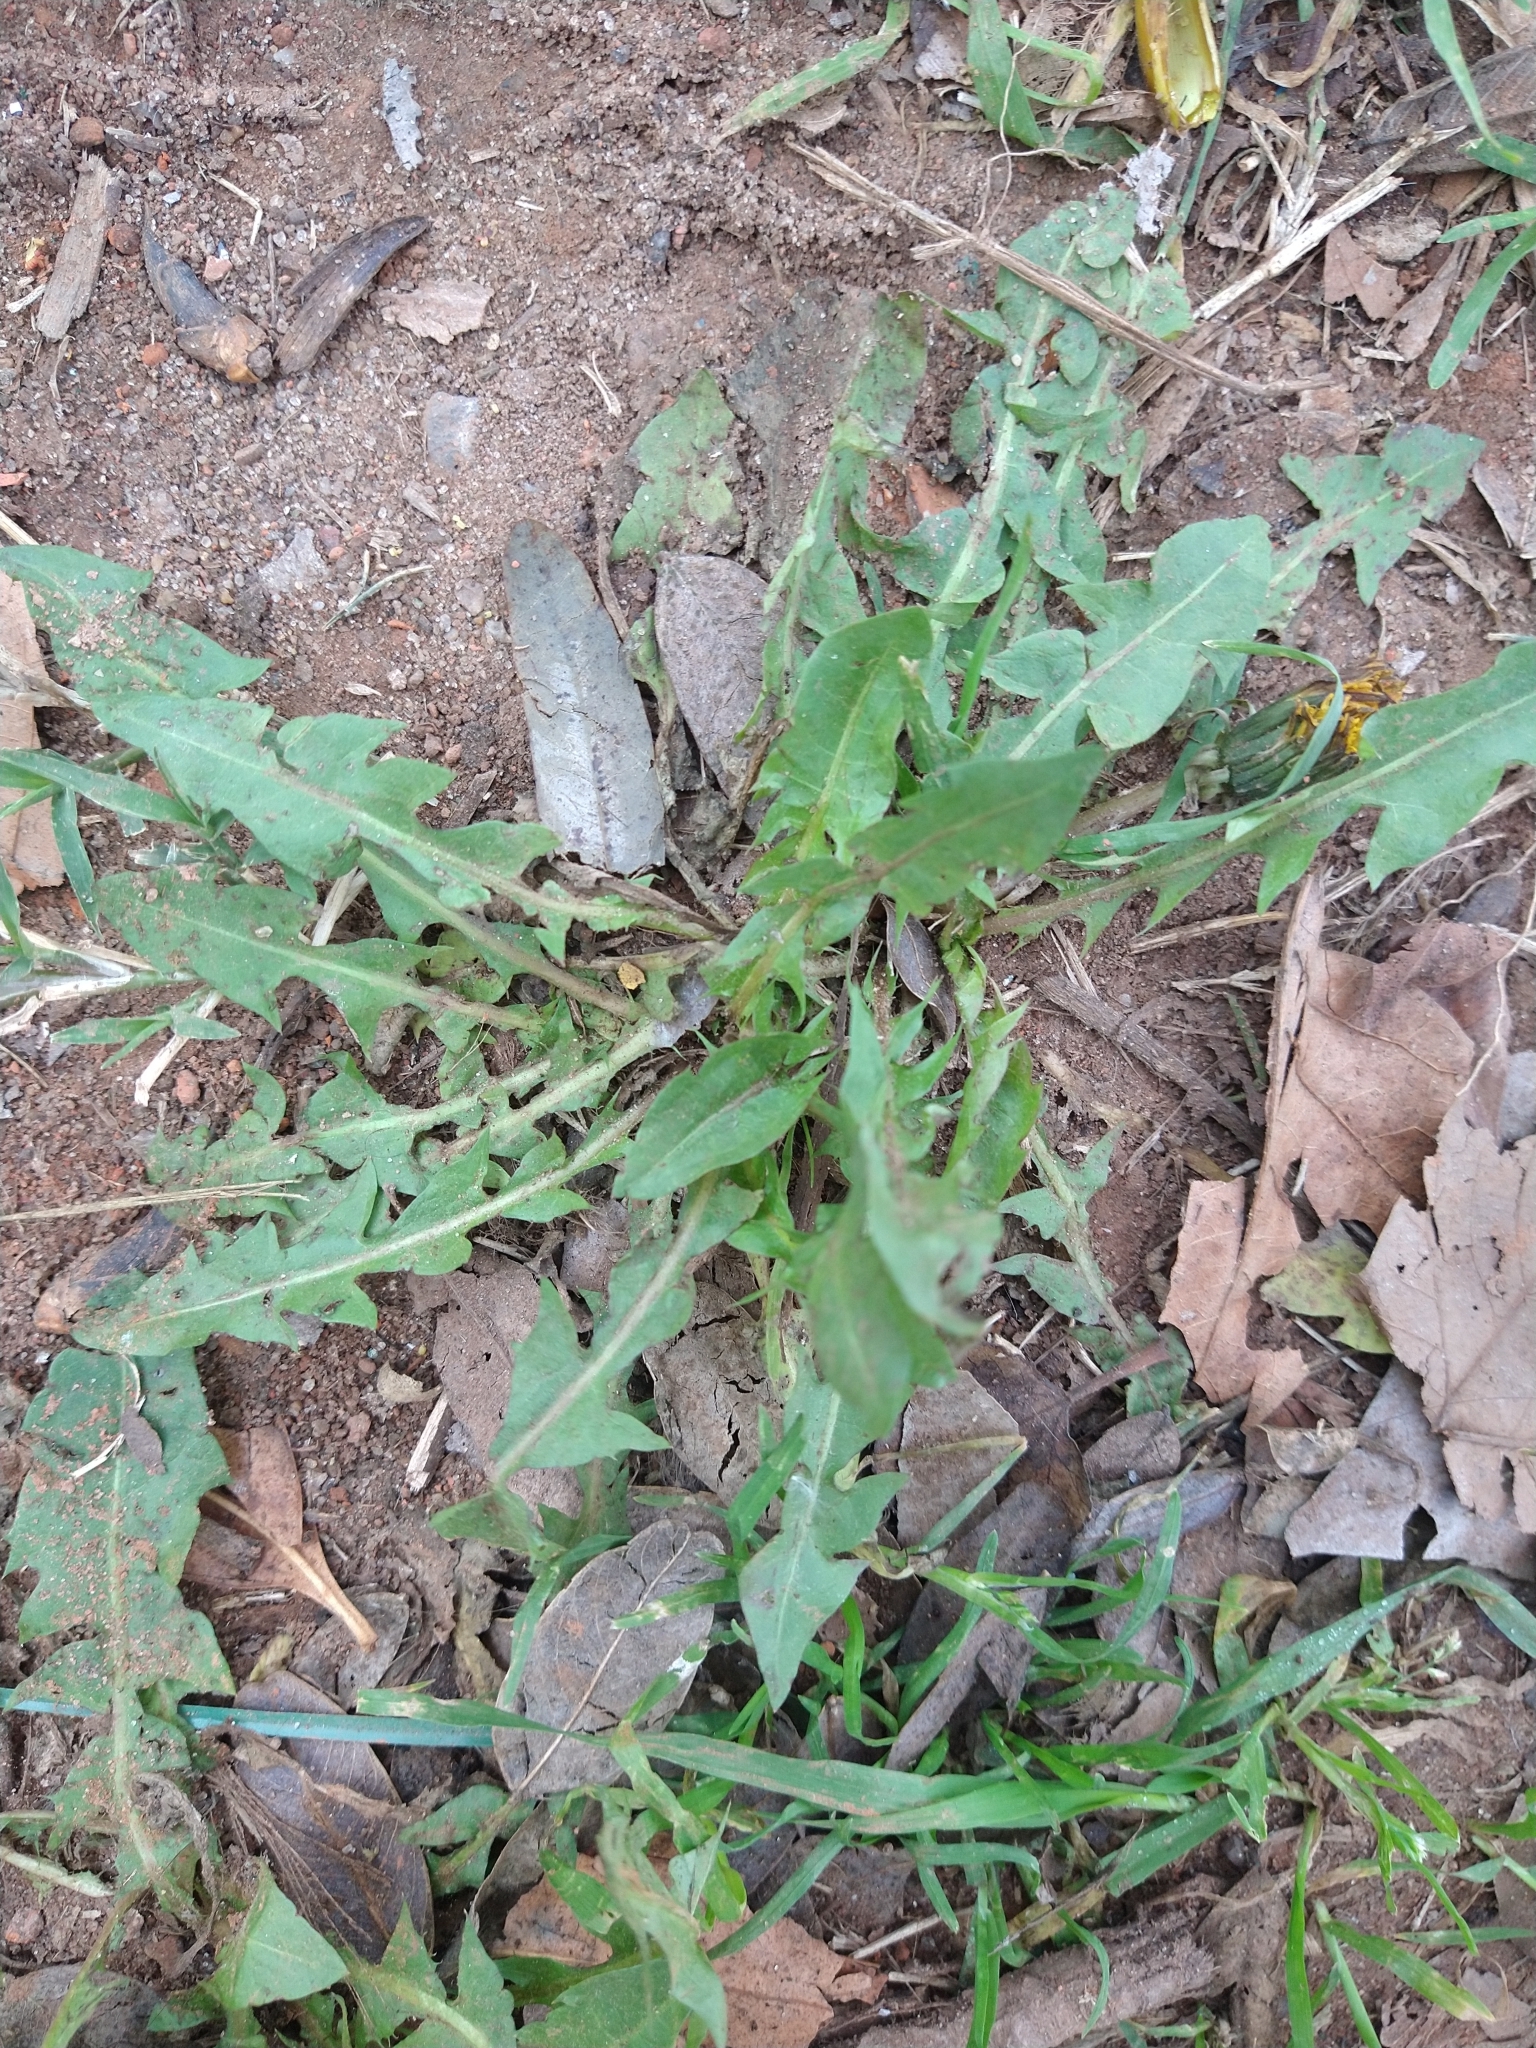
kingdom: Plantae
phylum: Tracheophyta
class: Magnoliopsida
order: Asterales
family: Asteraceae
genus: Taraxacum
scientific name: Taraxacum officinale
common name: Common dandelion
